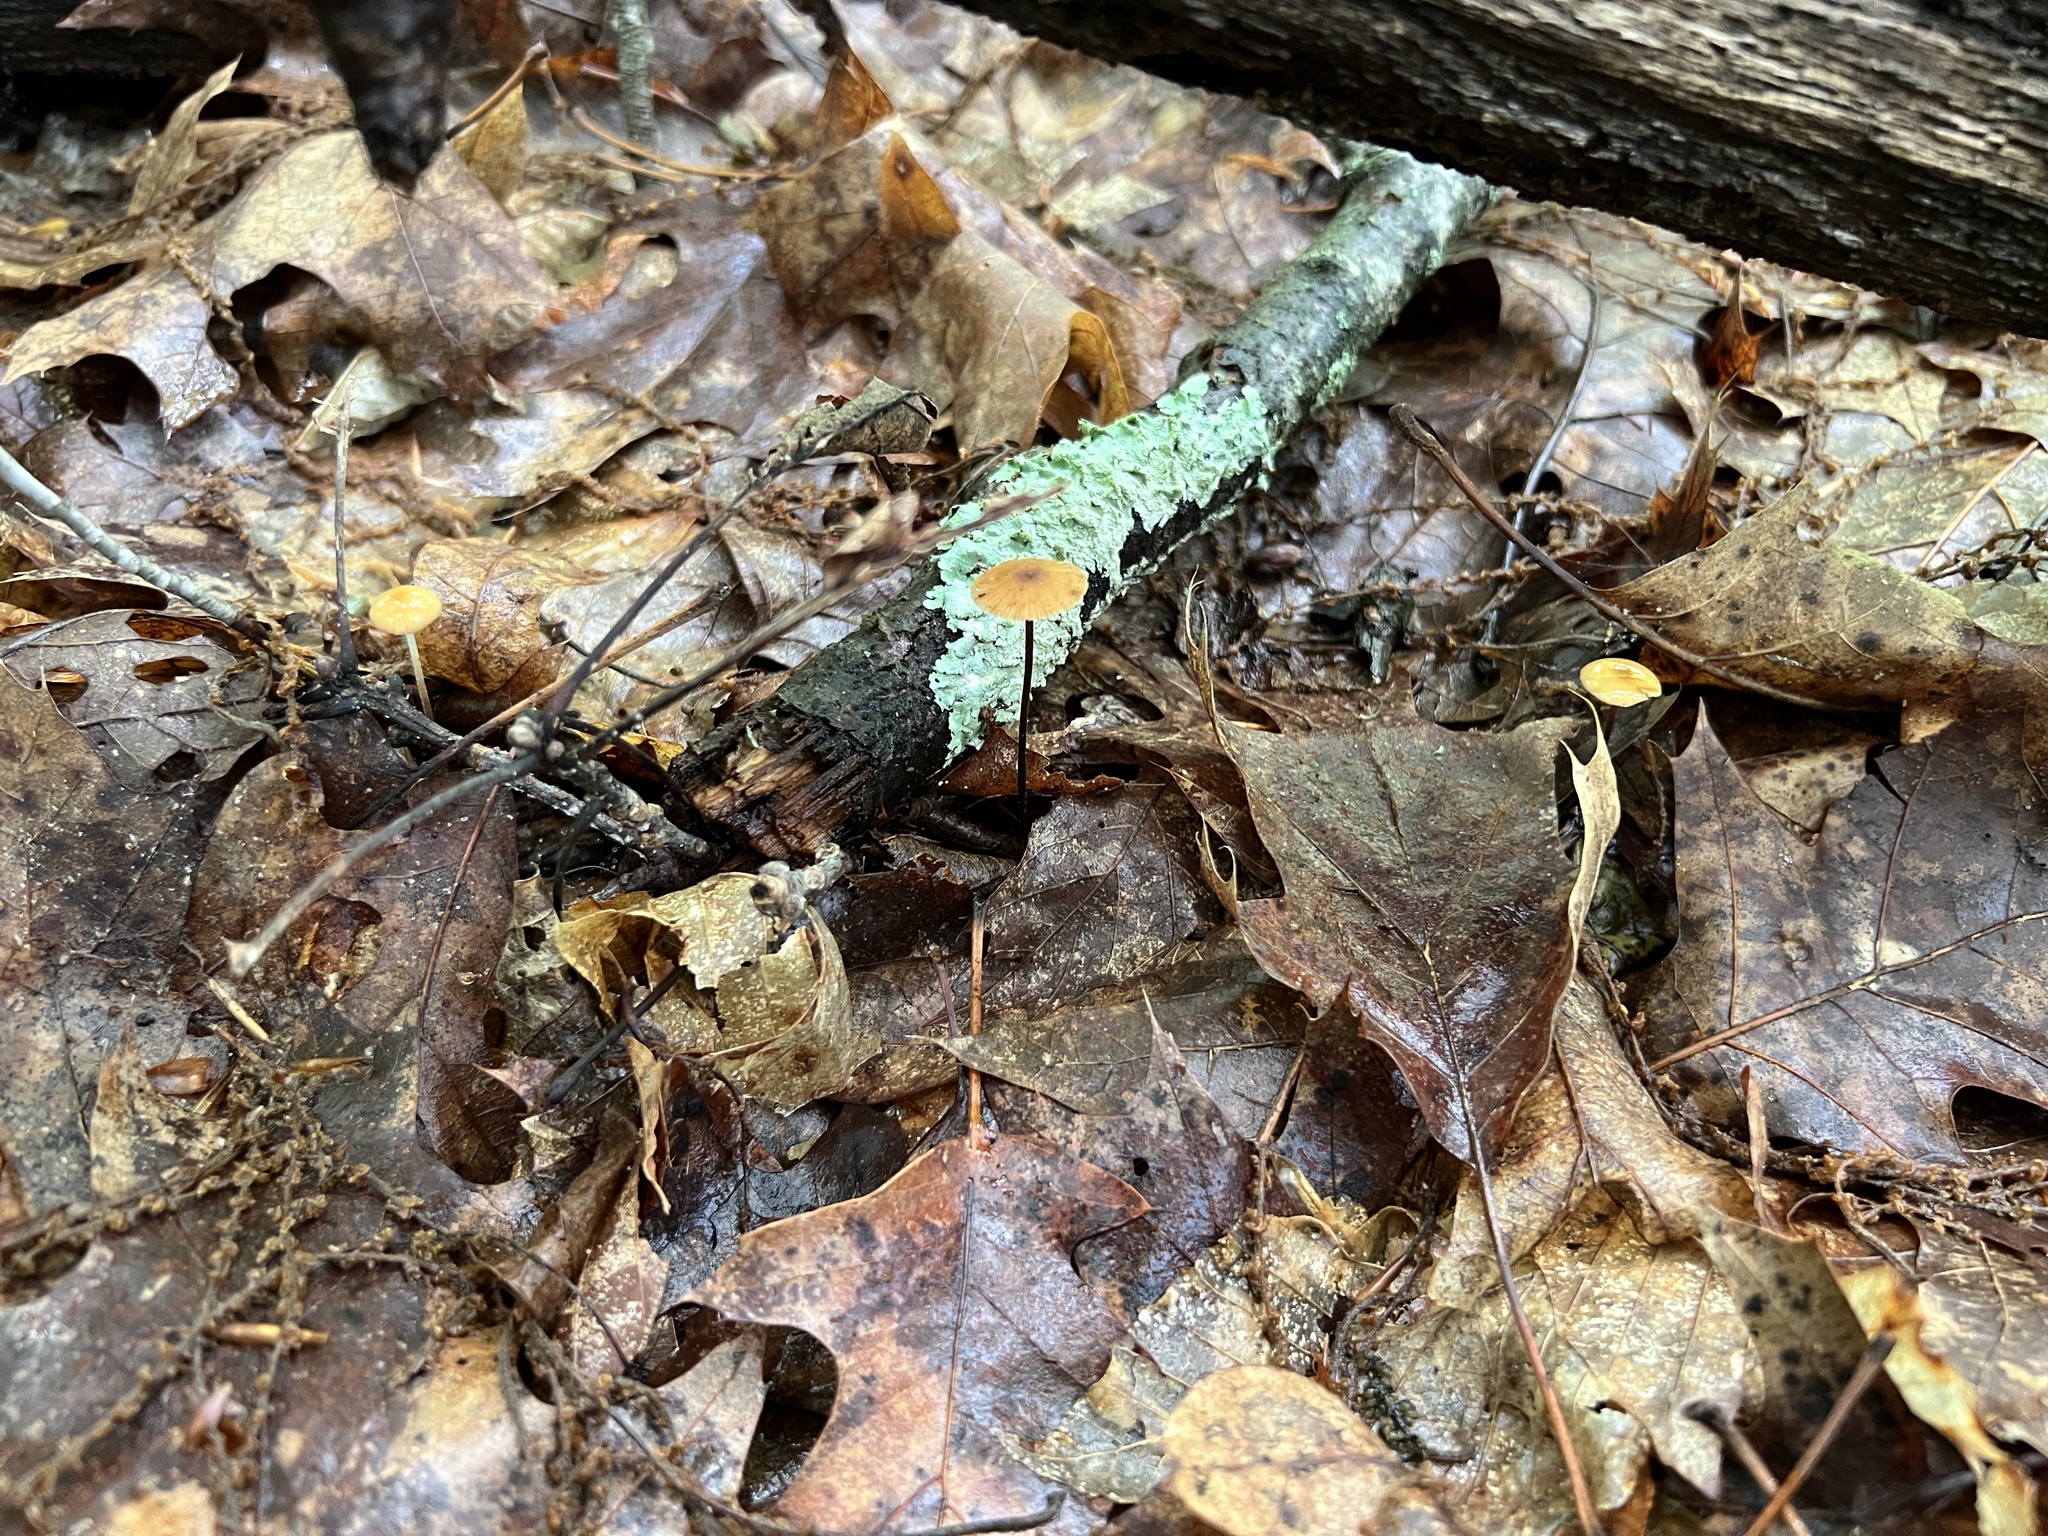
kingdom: Fungi
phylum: Basidiomycota
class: Agaricomycetes
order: Agaricales
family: Physalacriaceae
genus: Rhizomarasmius
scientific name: Rhizomarasmius pyrrhocephalus
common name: Hairy long stem marasmius
